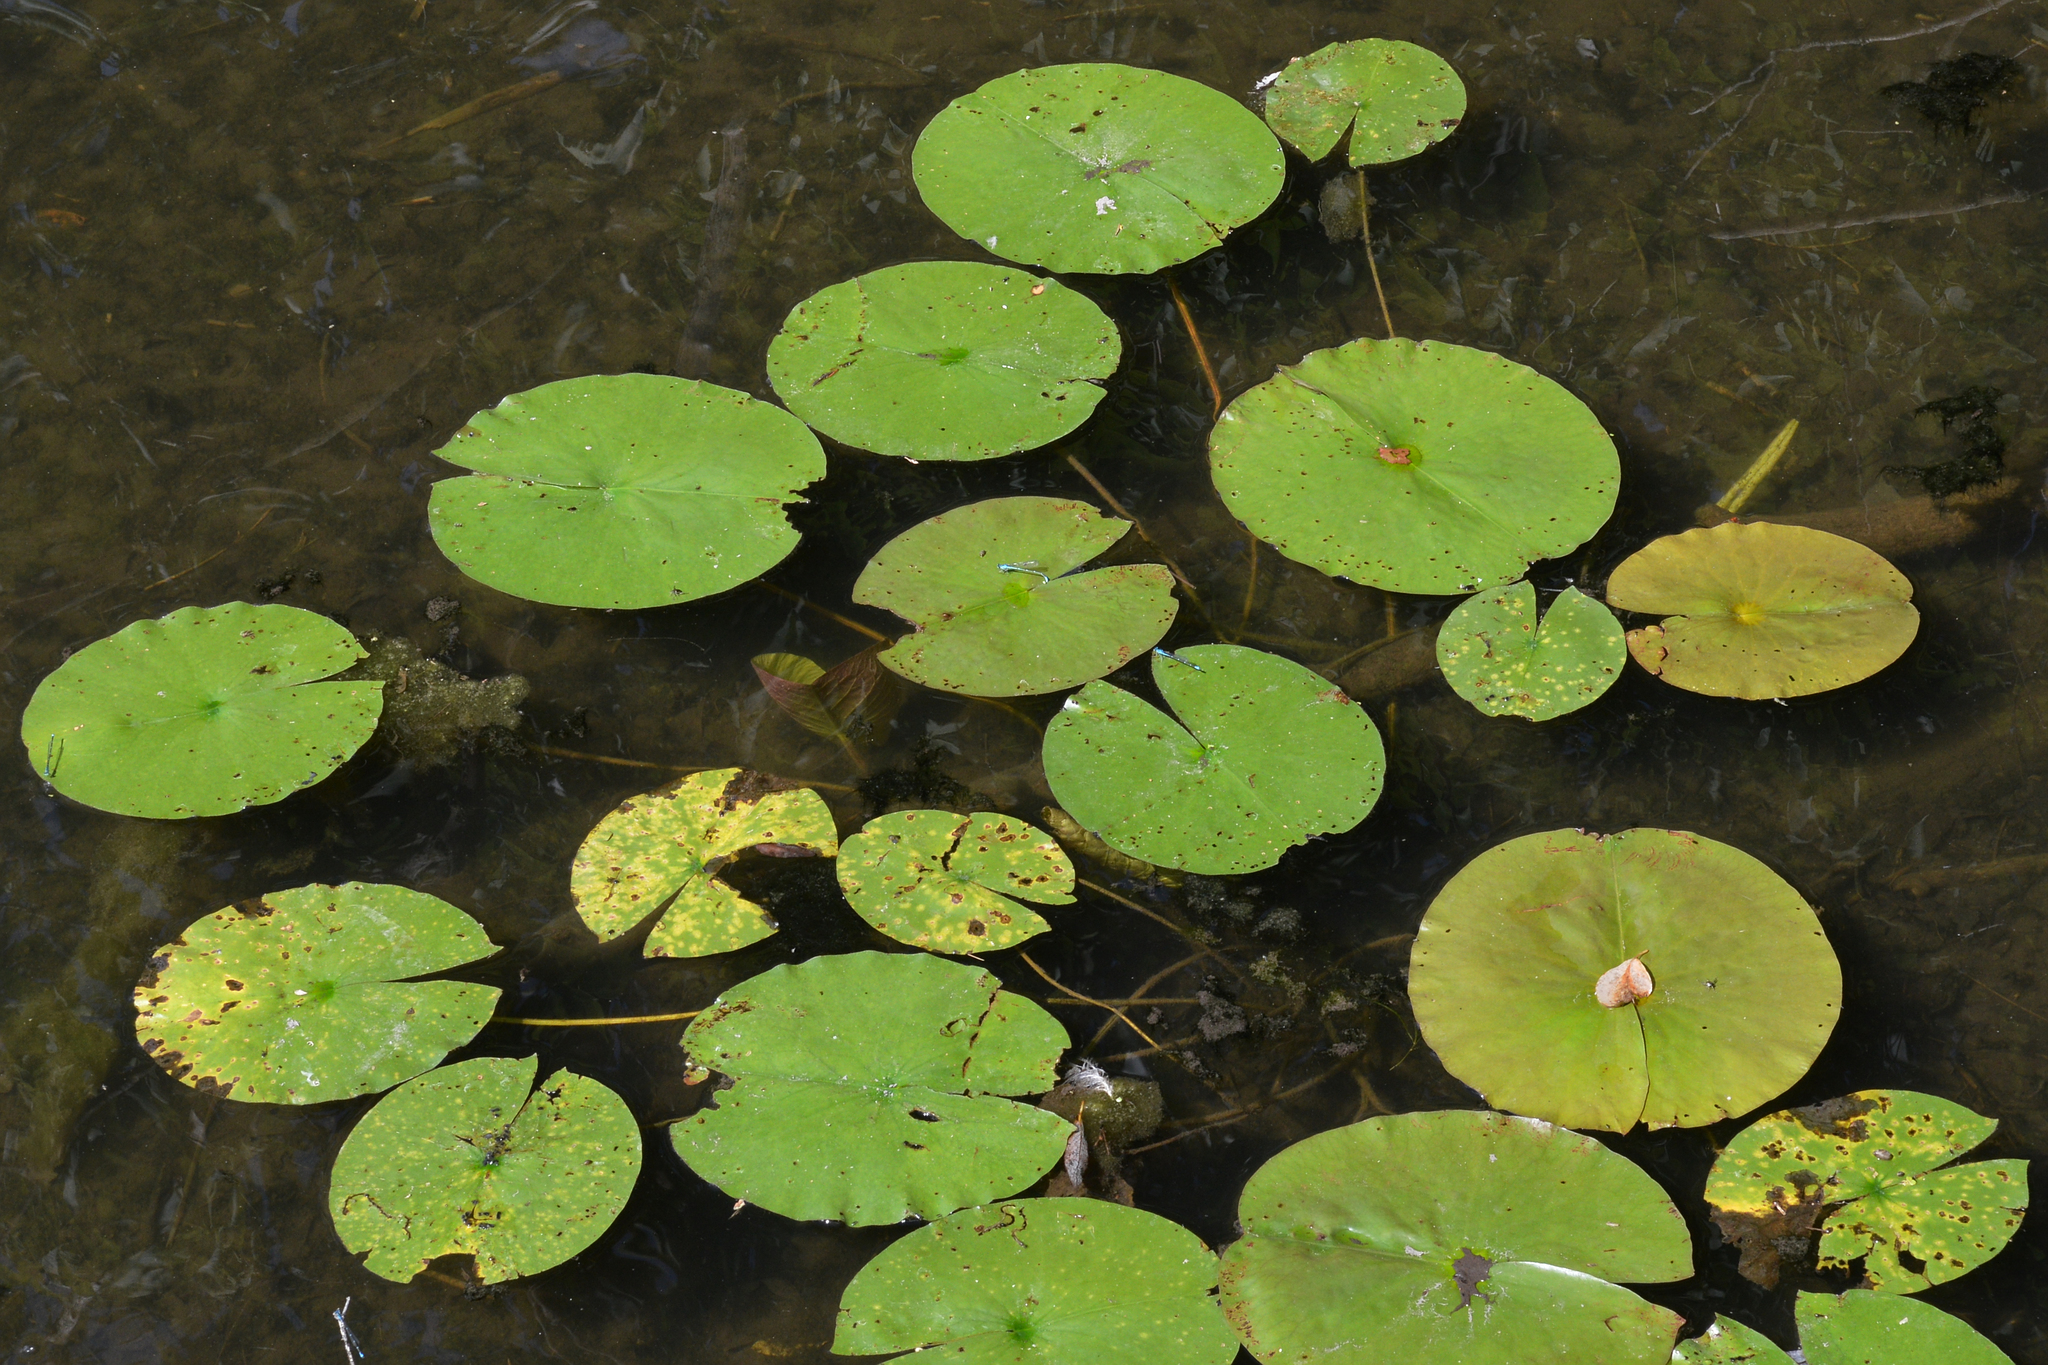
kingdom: Plantae
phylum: Tracheophyta
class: Magnoliopsida
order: Nymphaeales
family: Nymphaeaceae
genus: Nymphaea
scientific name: Nymphaea odorata
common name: Fragrant water-lily
